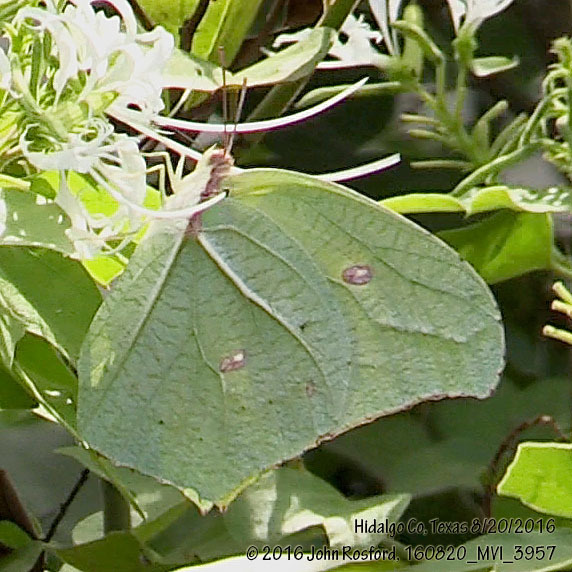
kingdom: Animalia
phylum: Arthropoda
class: Insecta
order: Lepidoptera
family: Pieridae
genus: Anteos
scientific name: Anteos maerula
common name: Angled sulphur
